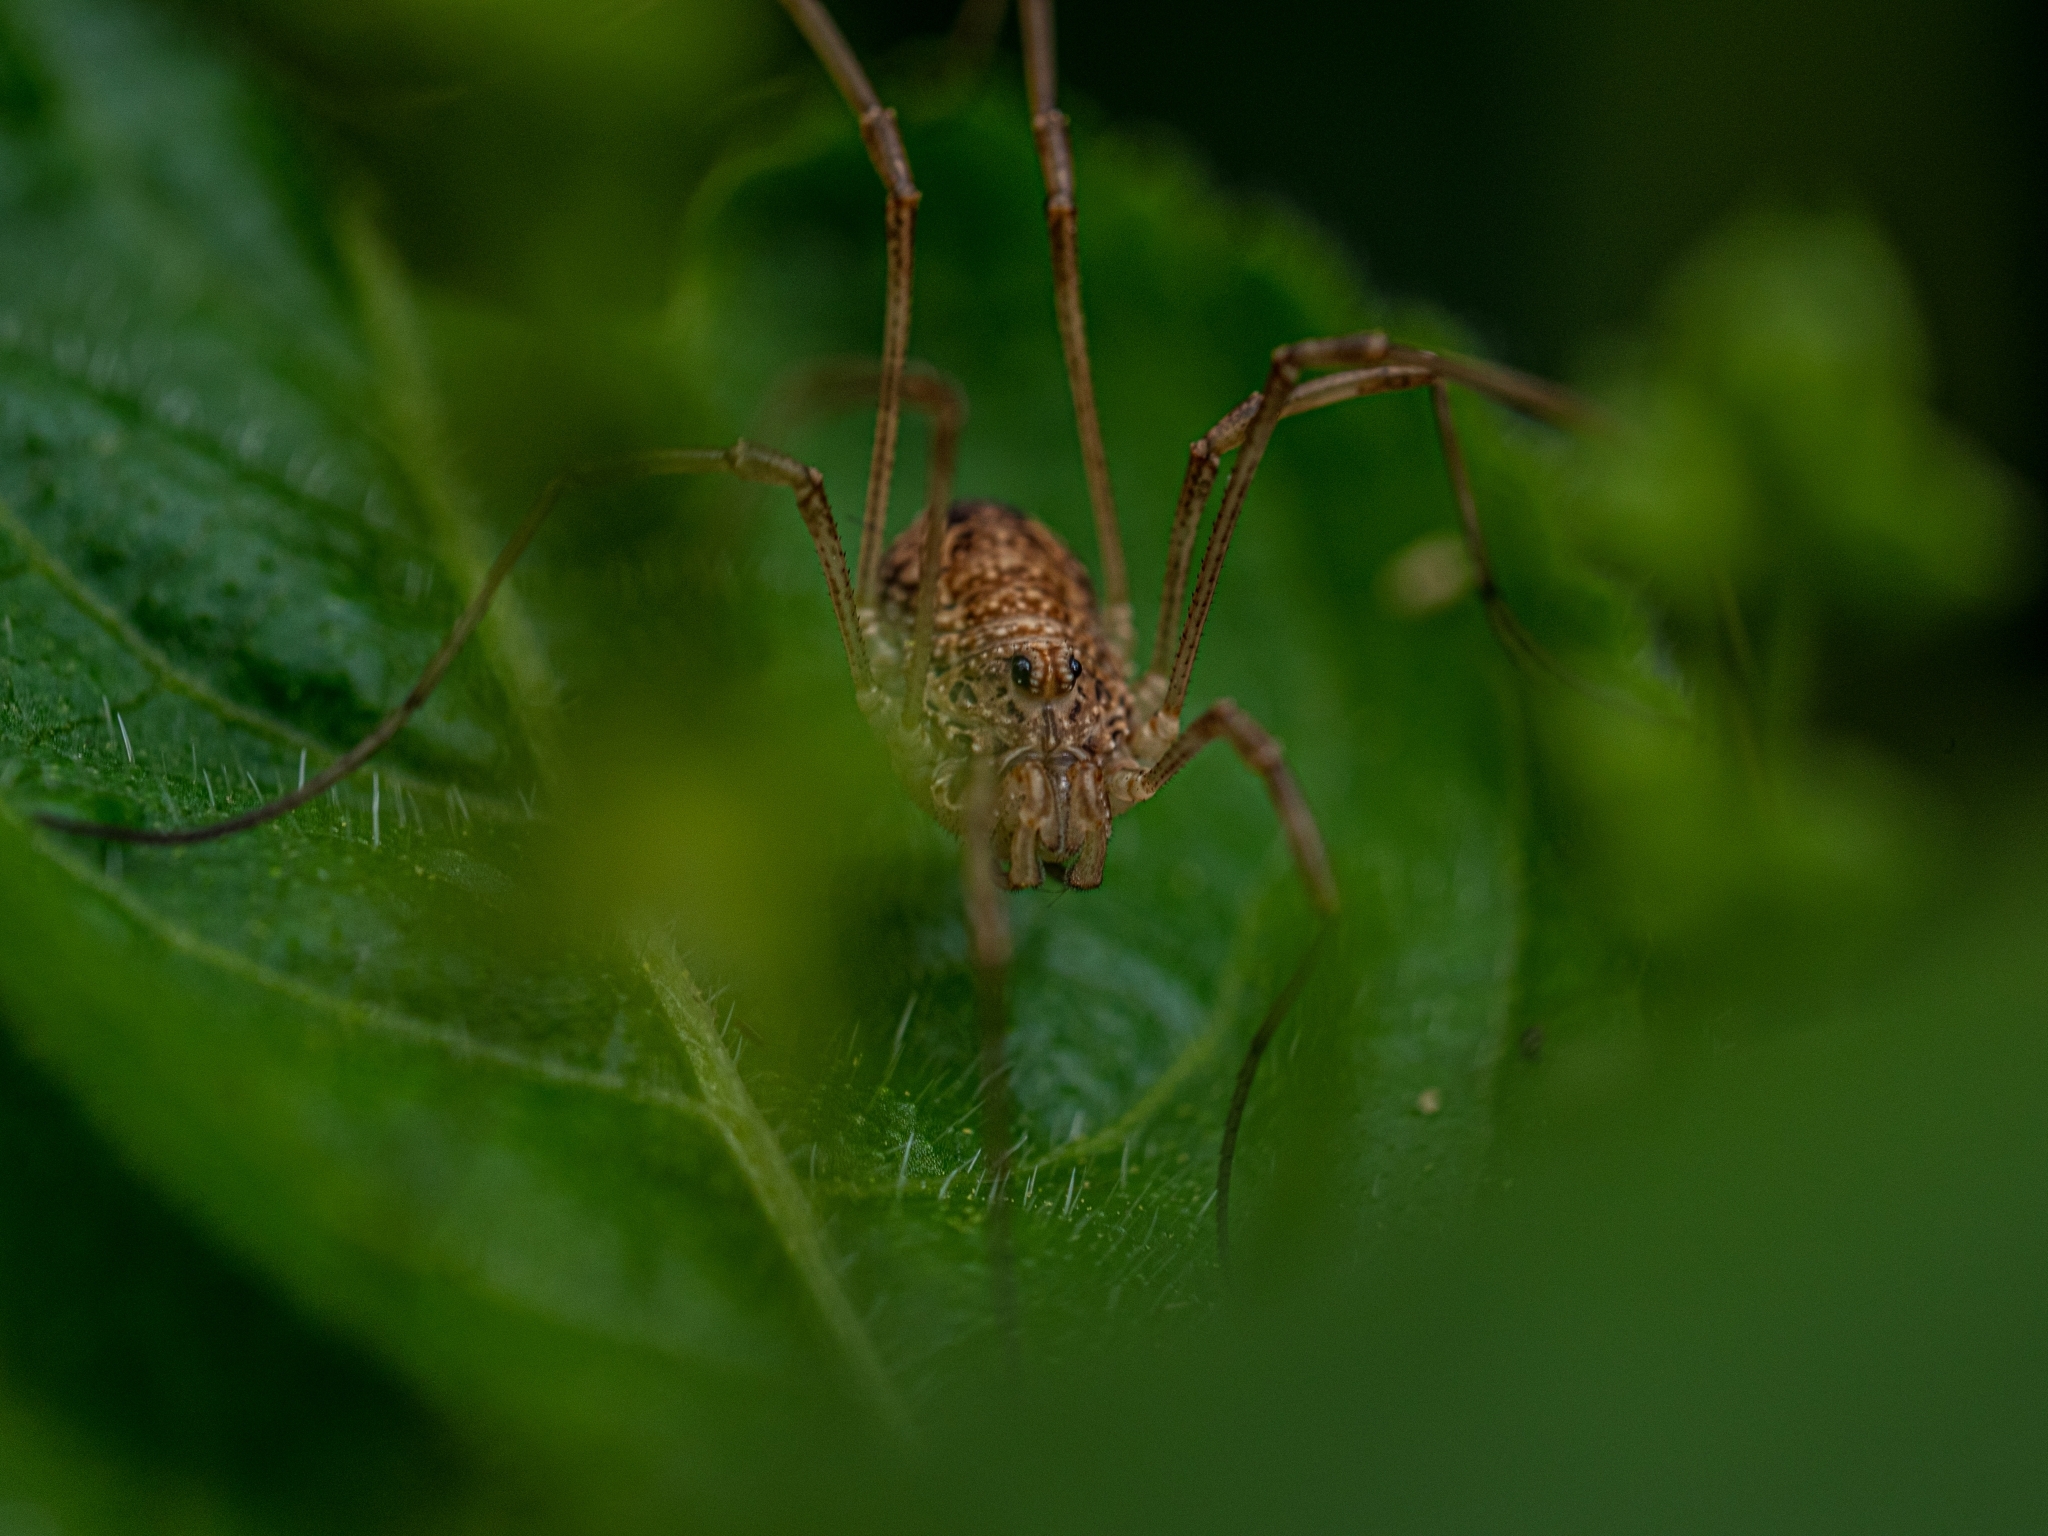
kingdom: Animalia
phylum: Arthropoda
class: Arachnida
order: Opiliones
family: Phalangiidae
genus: Rilaena
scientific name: Rilaena triangularis
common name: Spring harvestman
